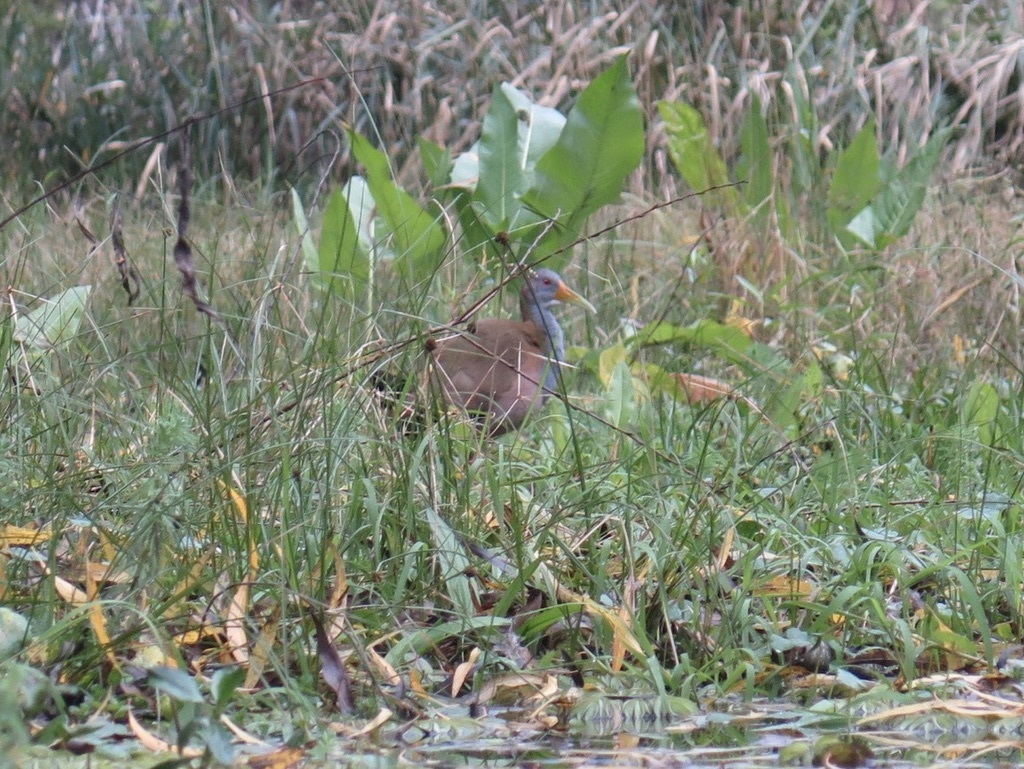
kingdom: Animalia
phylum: Chordata
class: Aves
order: Gruiformes
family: Rallidae
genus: Aramides
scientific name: Aramides ypecaha
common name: Giant wood rail
